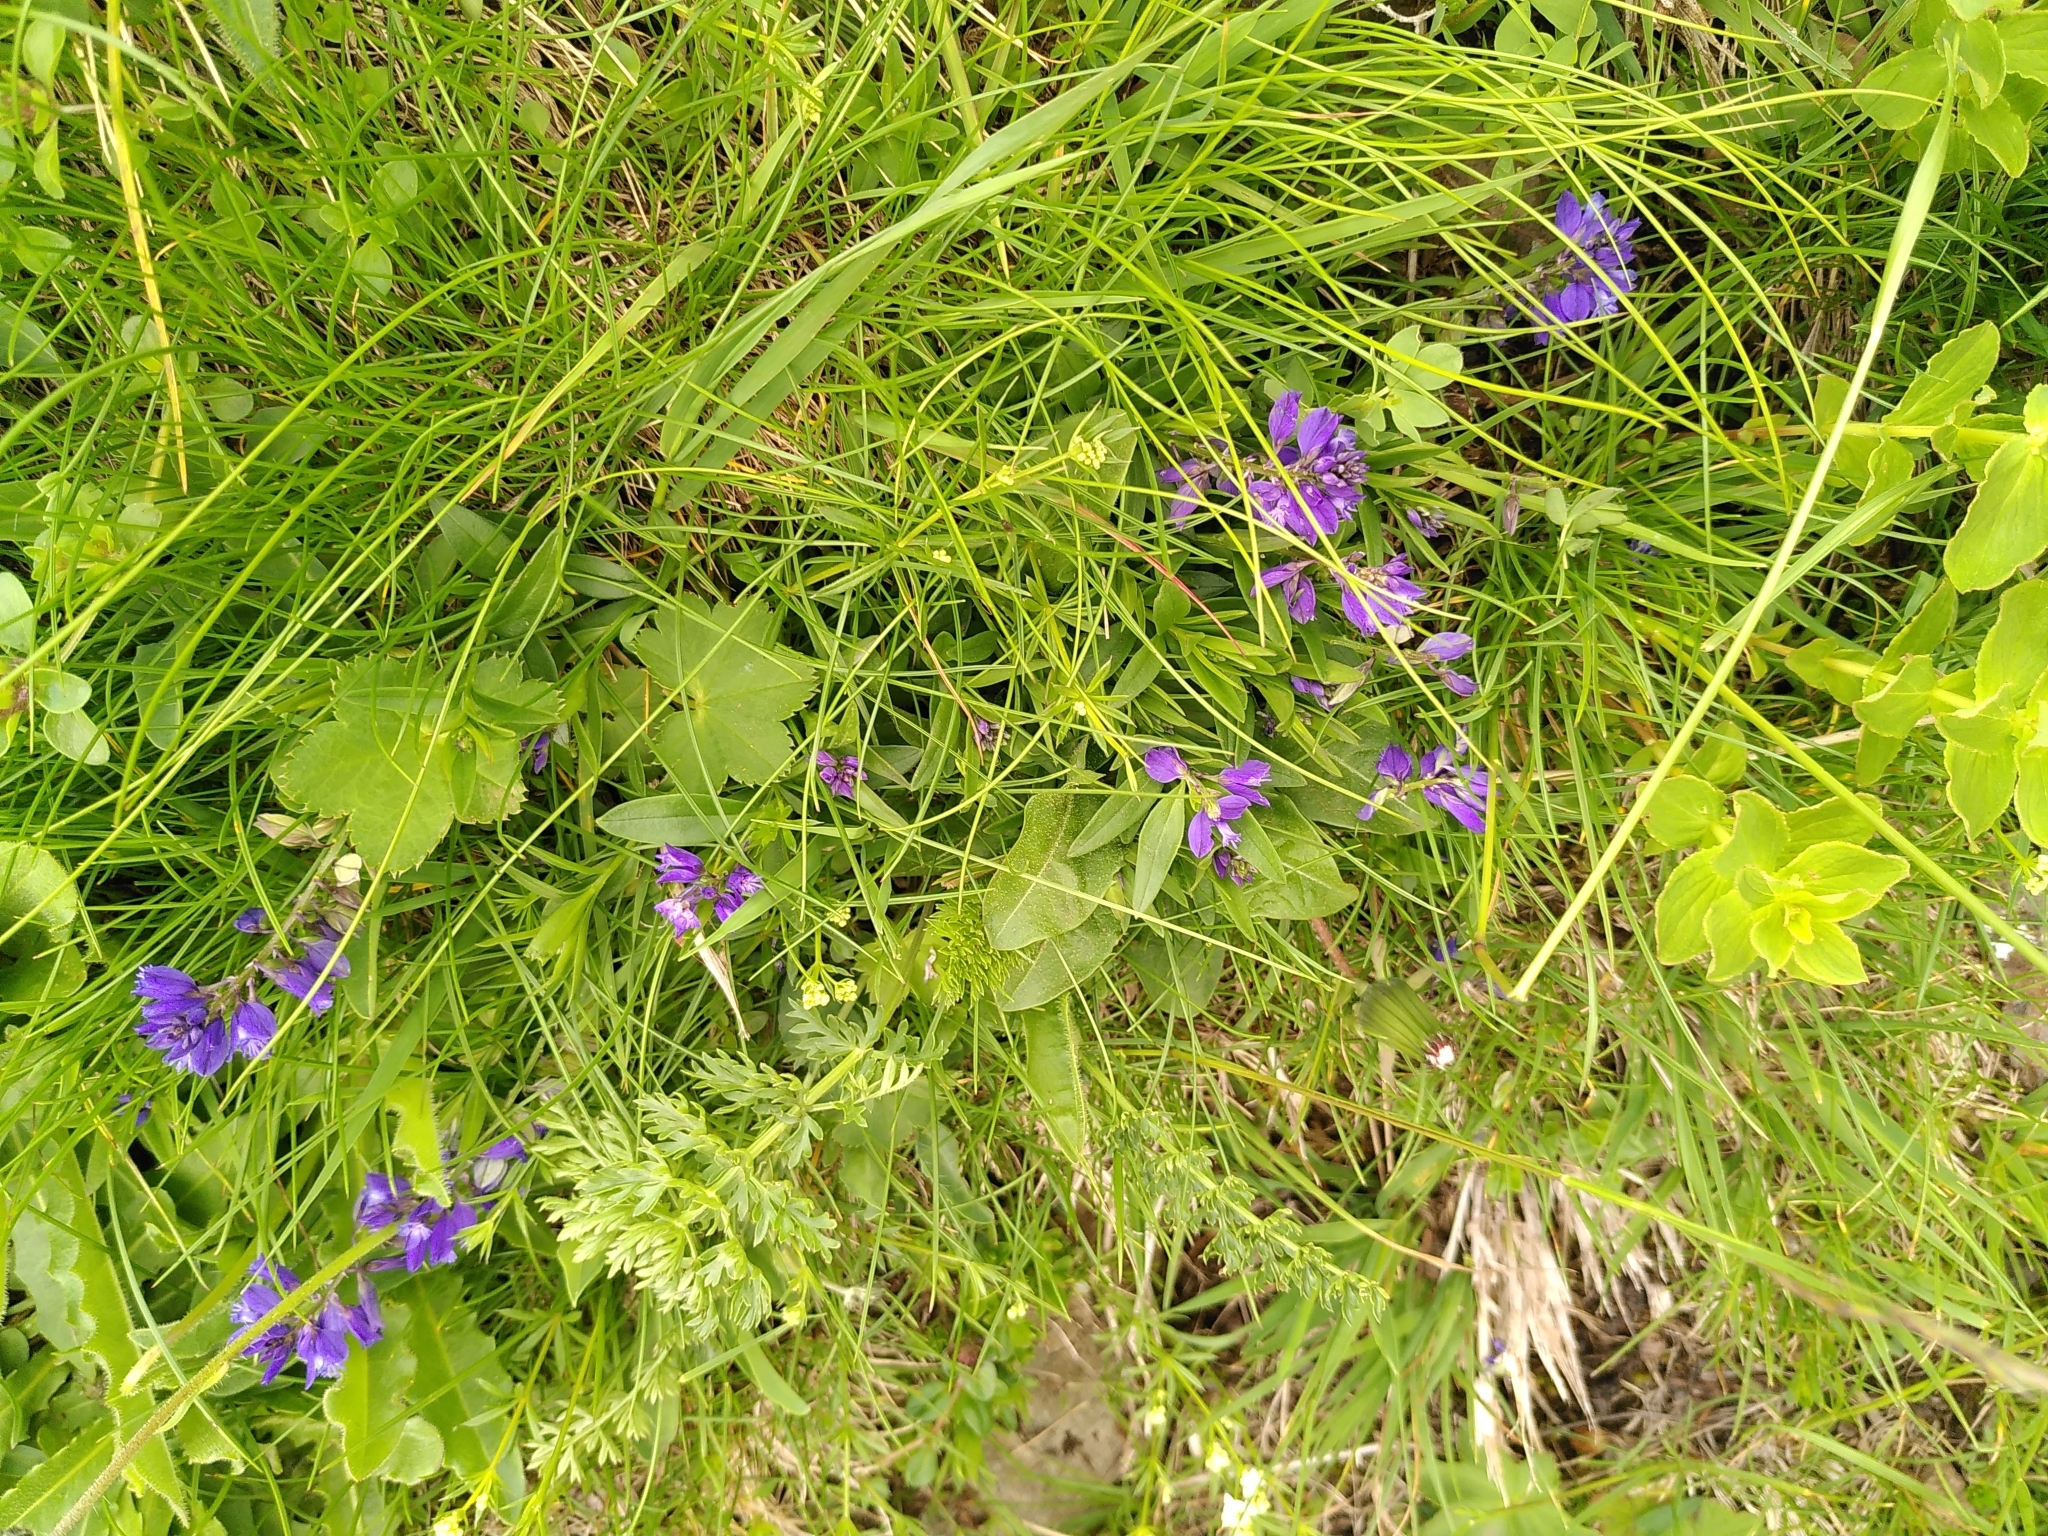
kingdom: Plantae
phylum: Tracheophyta
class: Magnoliopsida
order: Fabales
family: Polygalaceae
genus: Polygala
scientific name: Polygala vulgaris
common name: Common milkwort
